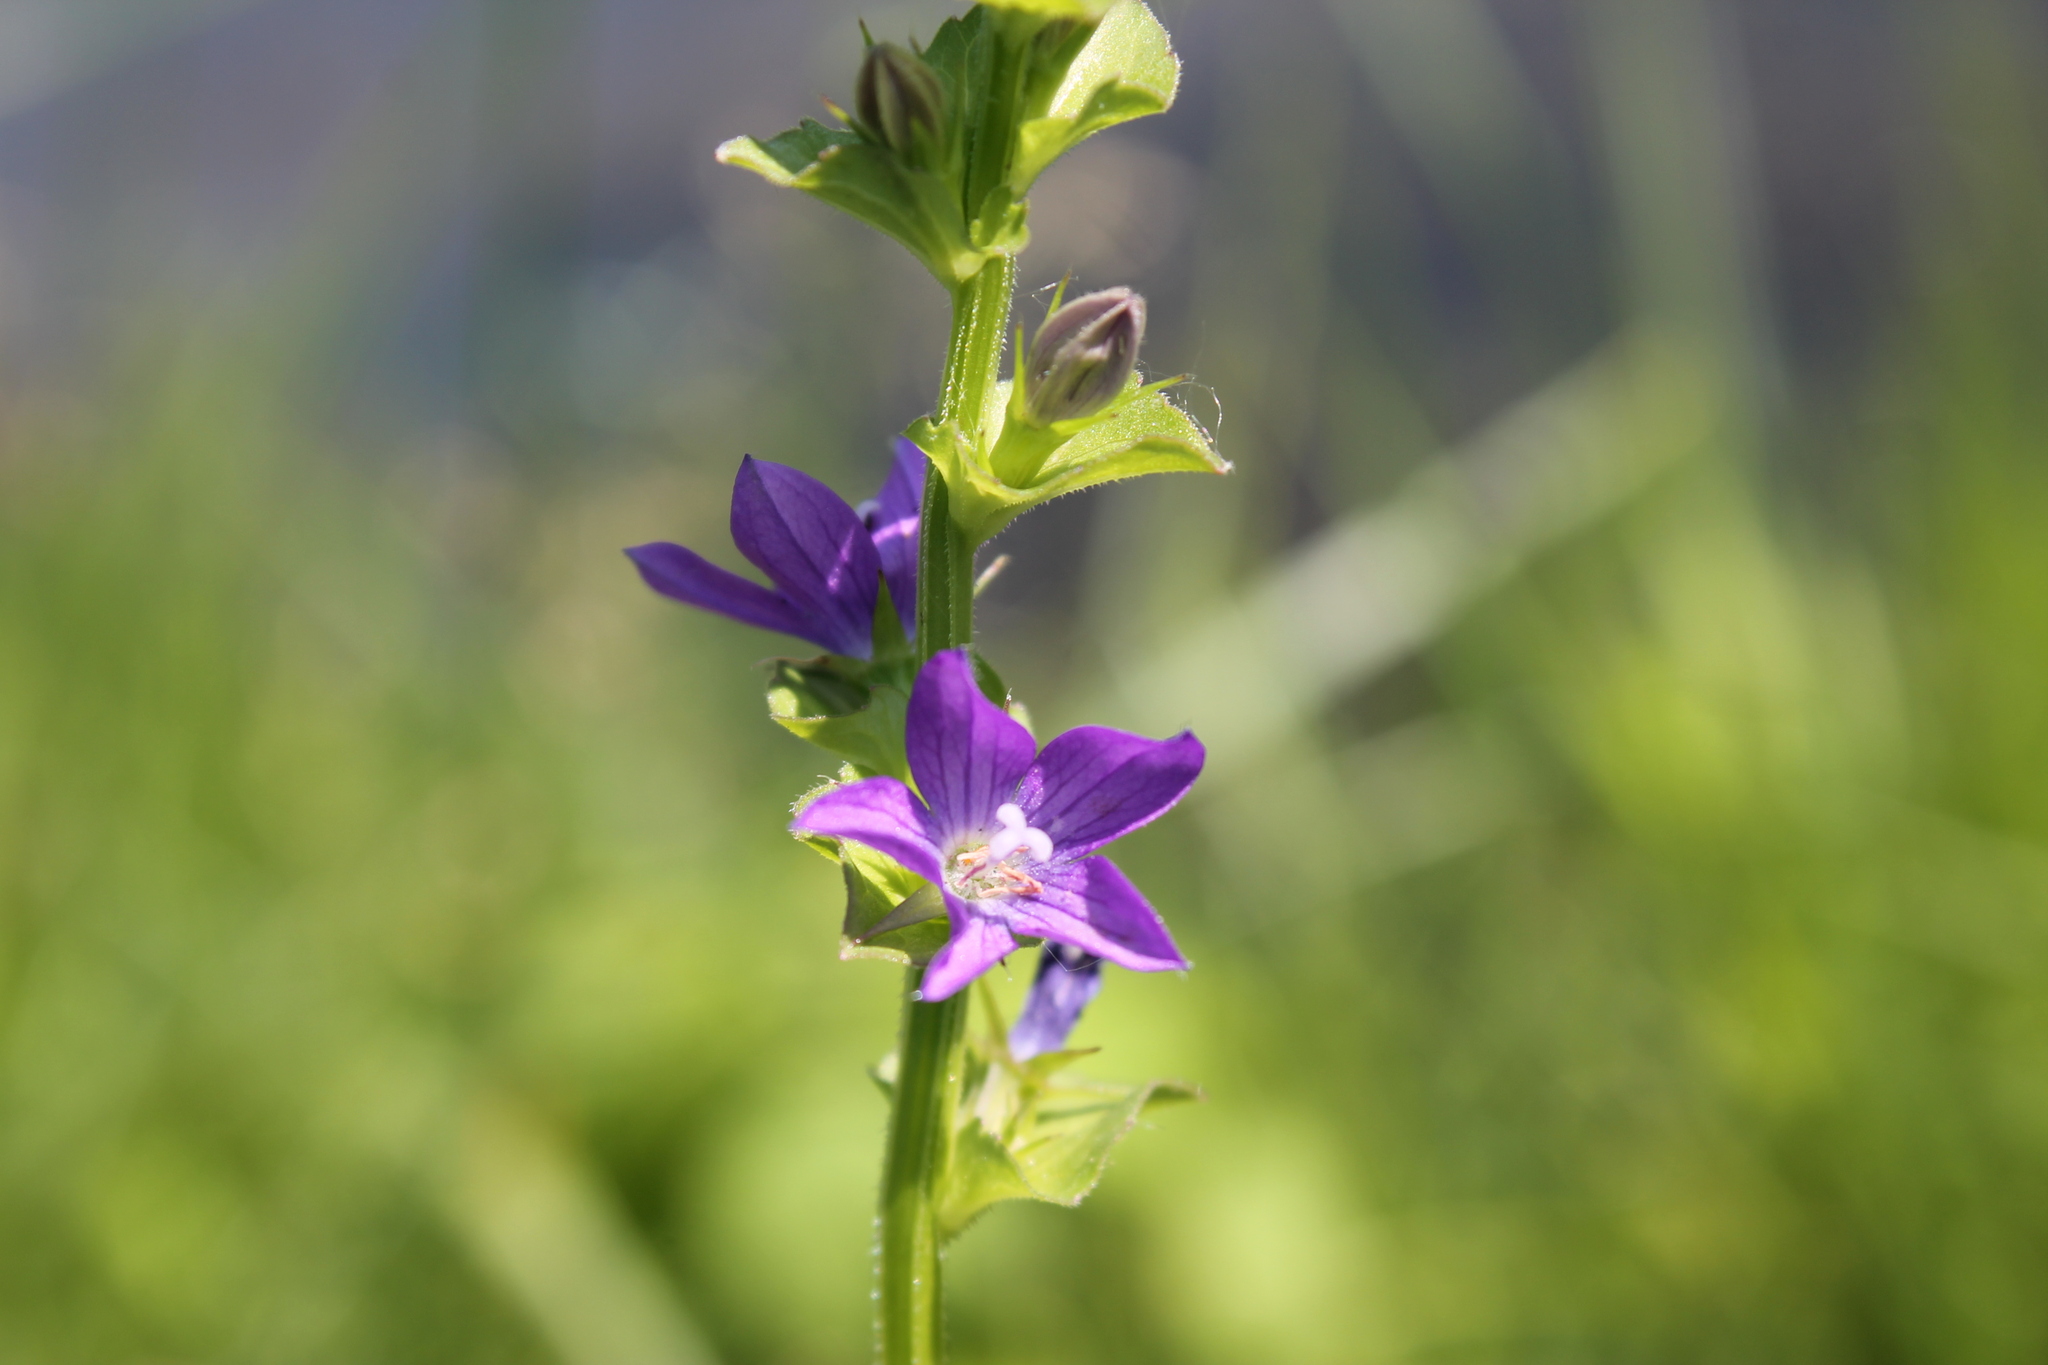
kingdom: Plantae
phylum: Tracheophyta
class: Magnoliopsida
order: Asterales
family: Campanulaceae
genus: Triodanis
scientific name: Triodanis perfoliata
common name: Clasping venus' looking-glass
